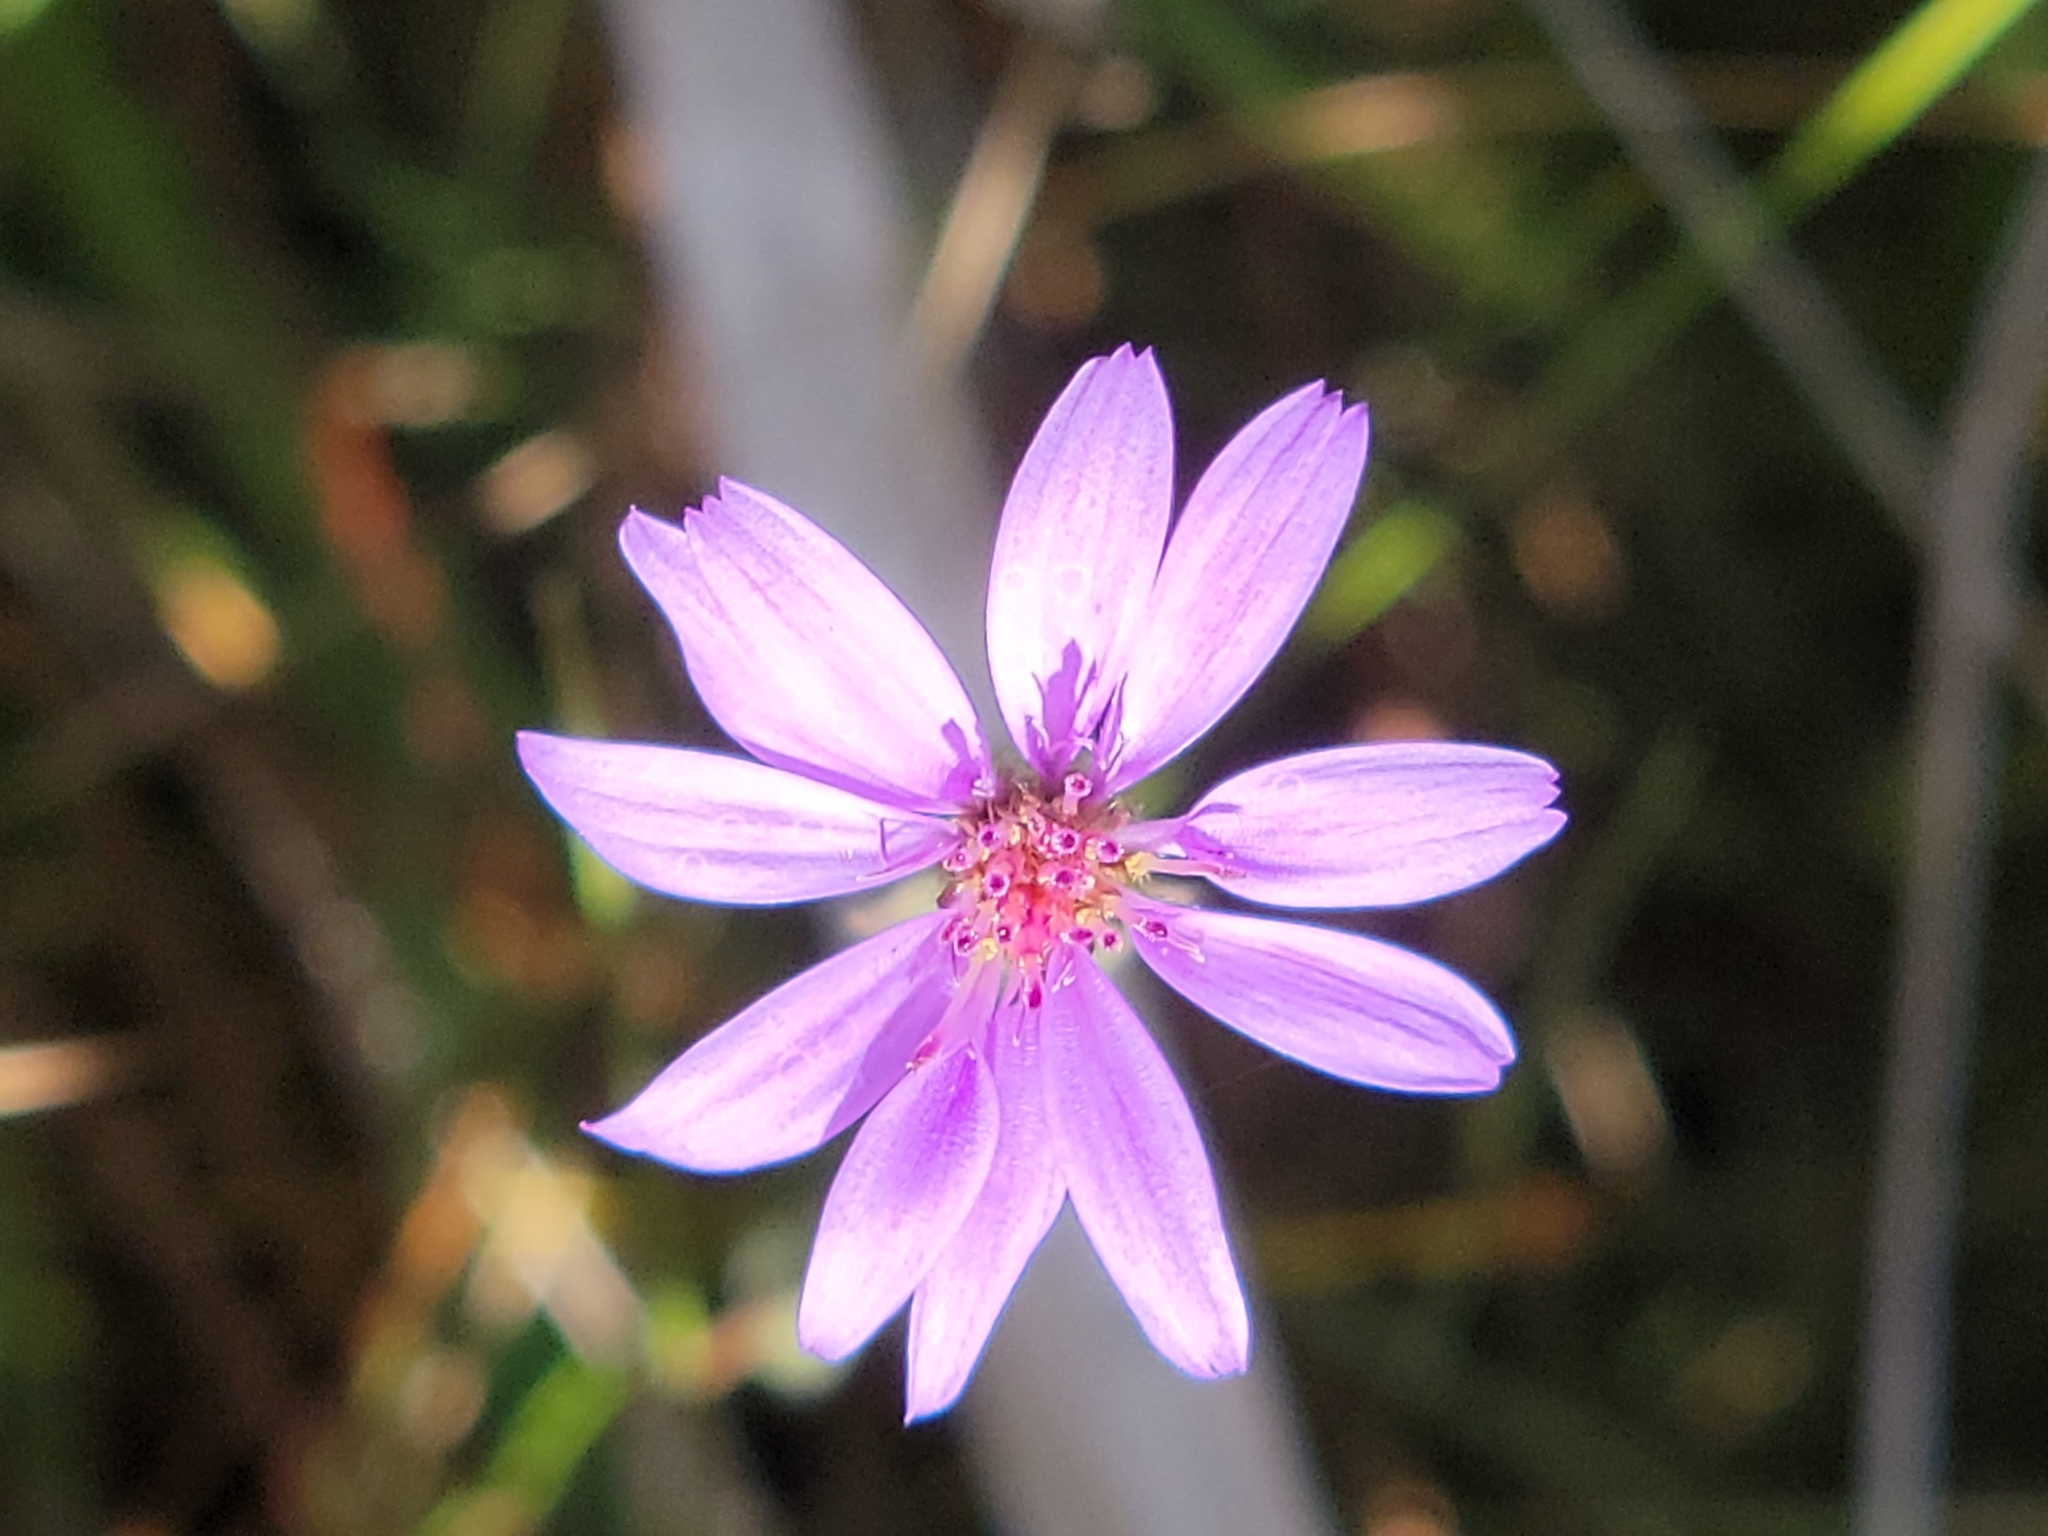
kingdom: Plantae
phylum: Tracheophyta
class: Magnoliopsida
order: Asterales
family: Asteraceae
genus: Symphyotrichum
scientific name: Symphyotrichum concolor
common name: Eastern silver aster
